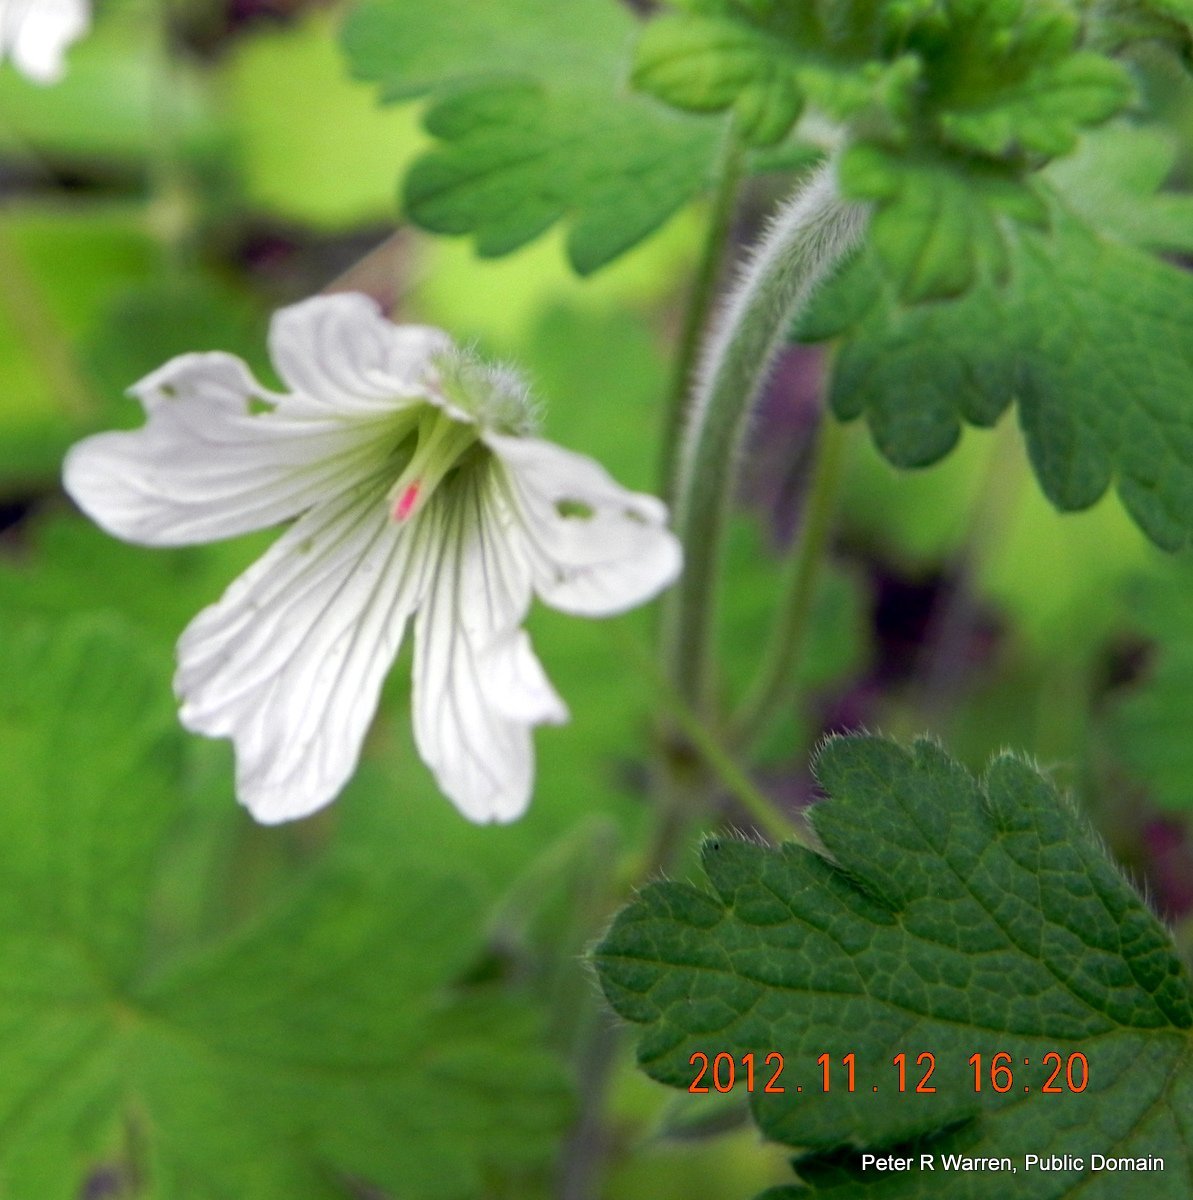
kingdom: Plantae
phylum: Tracheophyta
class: Magnoliopsida
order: Geraniales
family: Geraniaceae
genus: Geranium
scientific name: Geranium wakkerstroomianum
